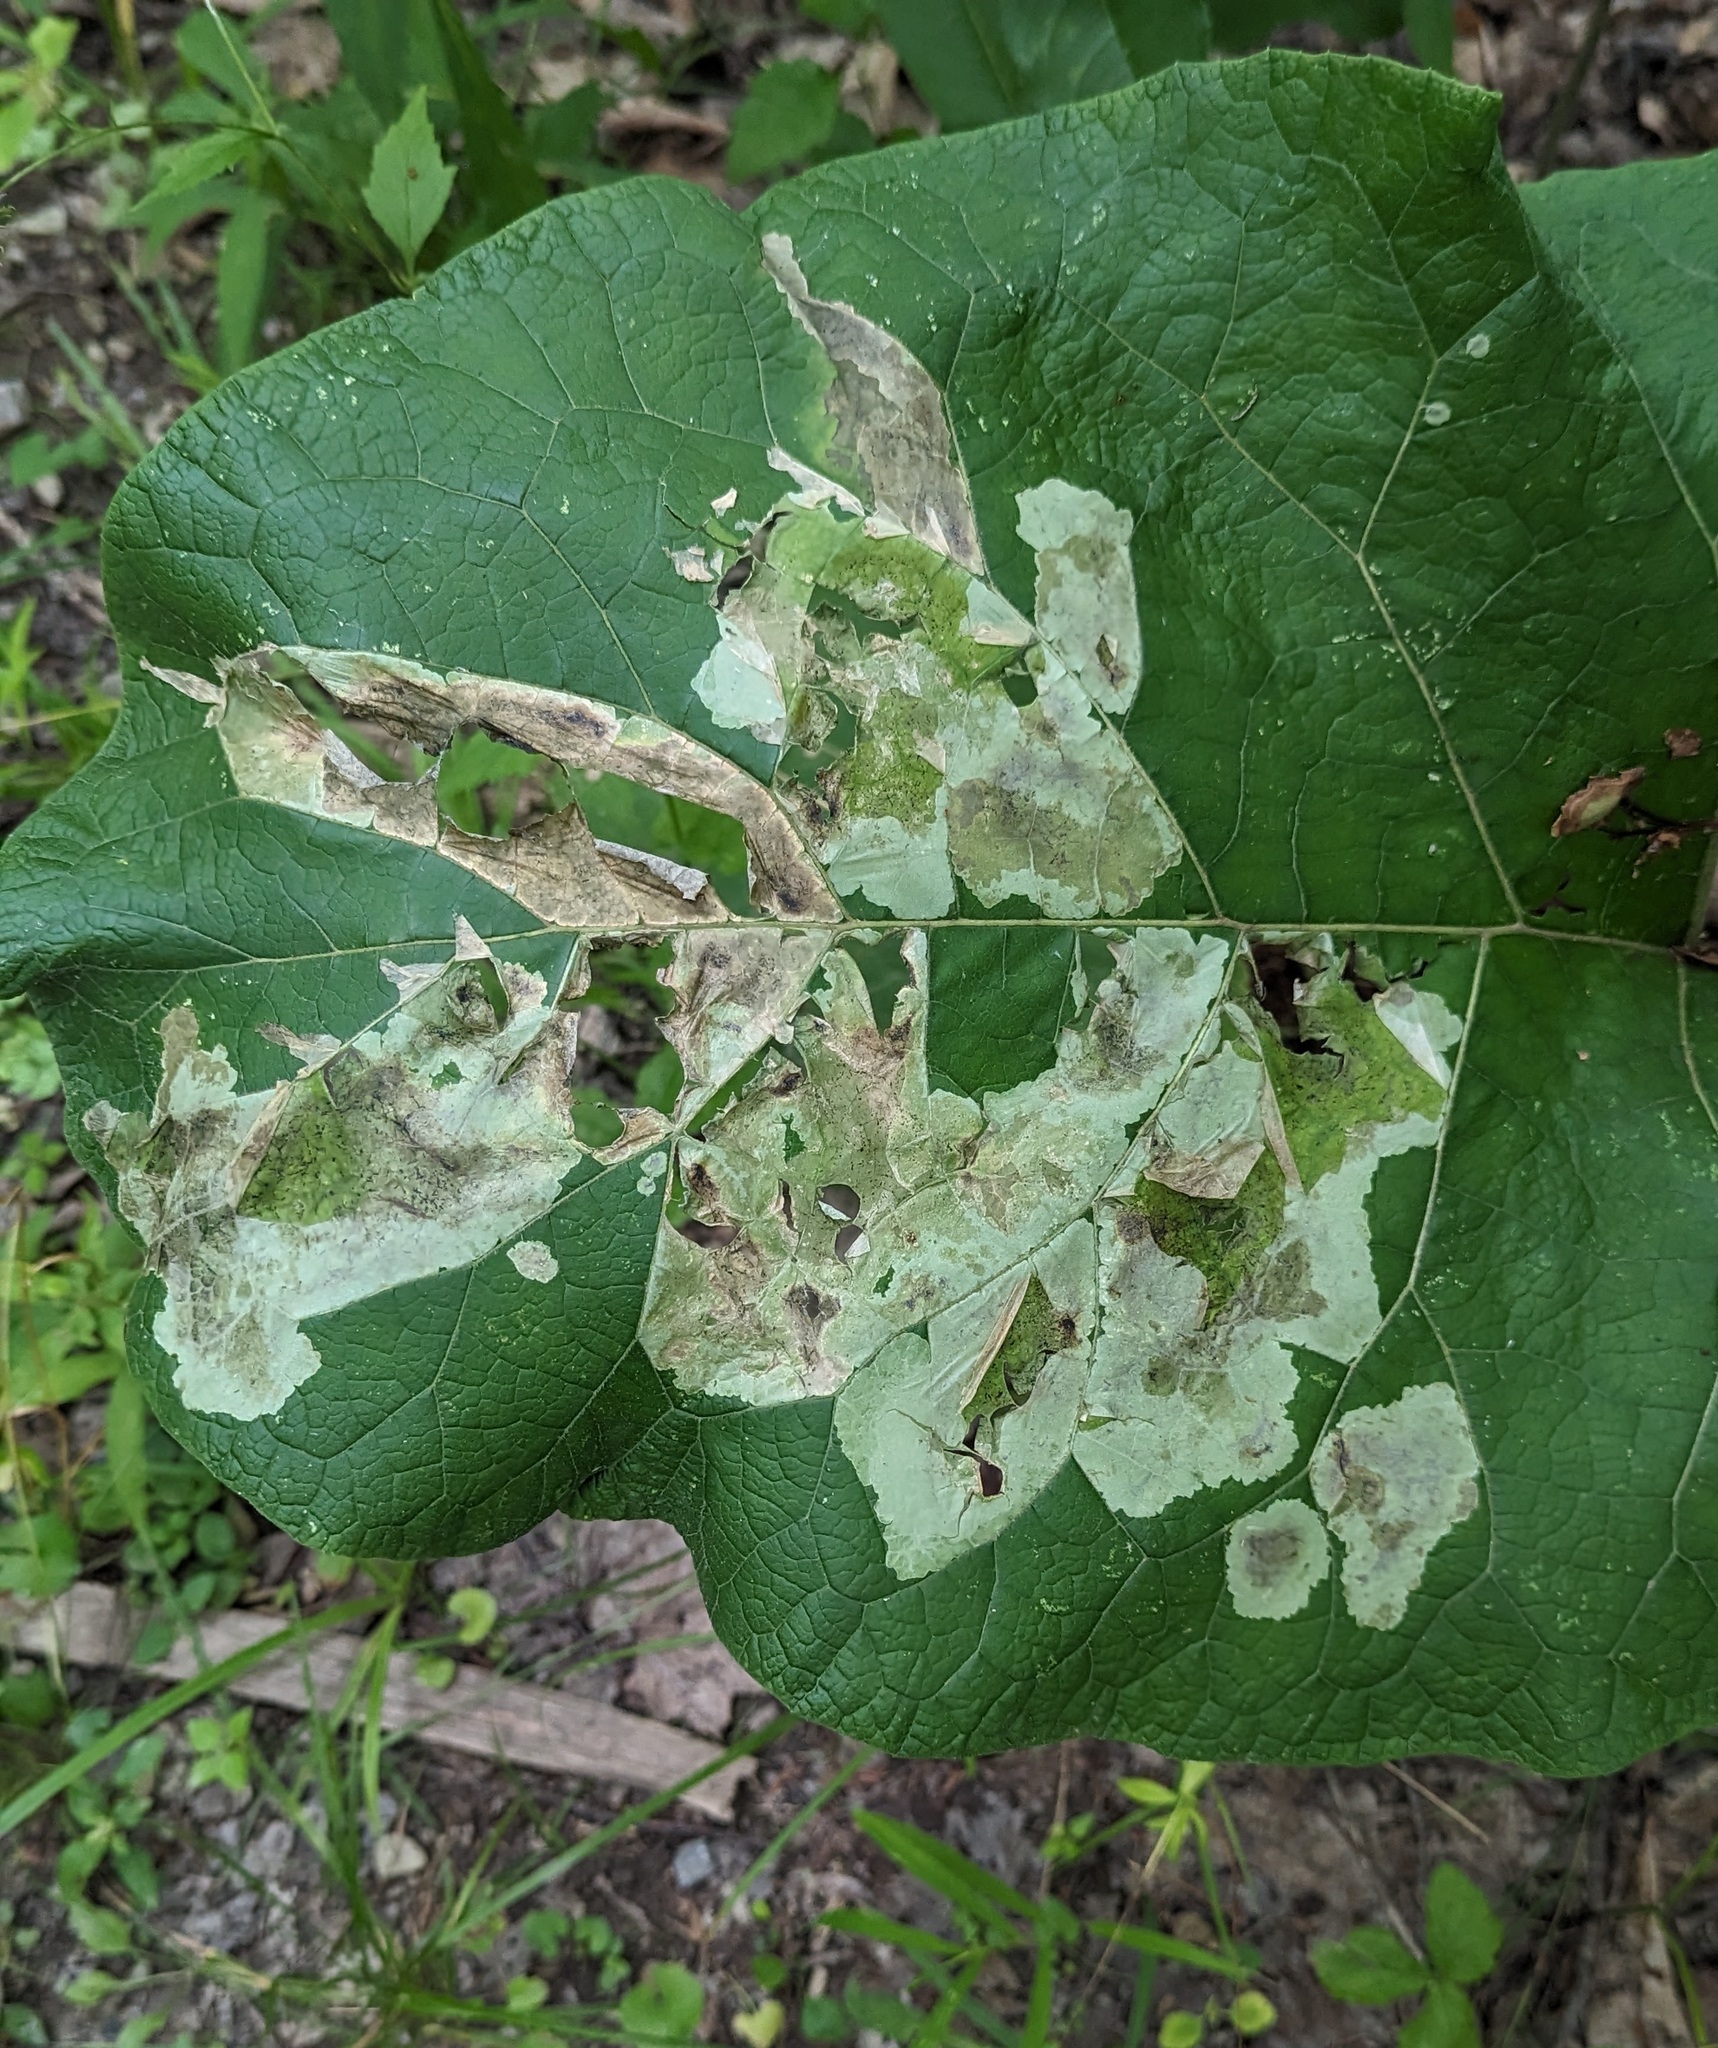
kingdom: Animalia
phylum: Arthropoda
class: Insecta
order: Diptera
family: Agromyzidae
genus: Calycomyza
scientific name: Calycomyza flavinotum
